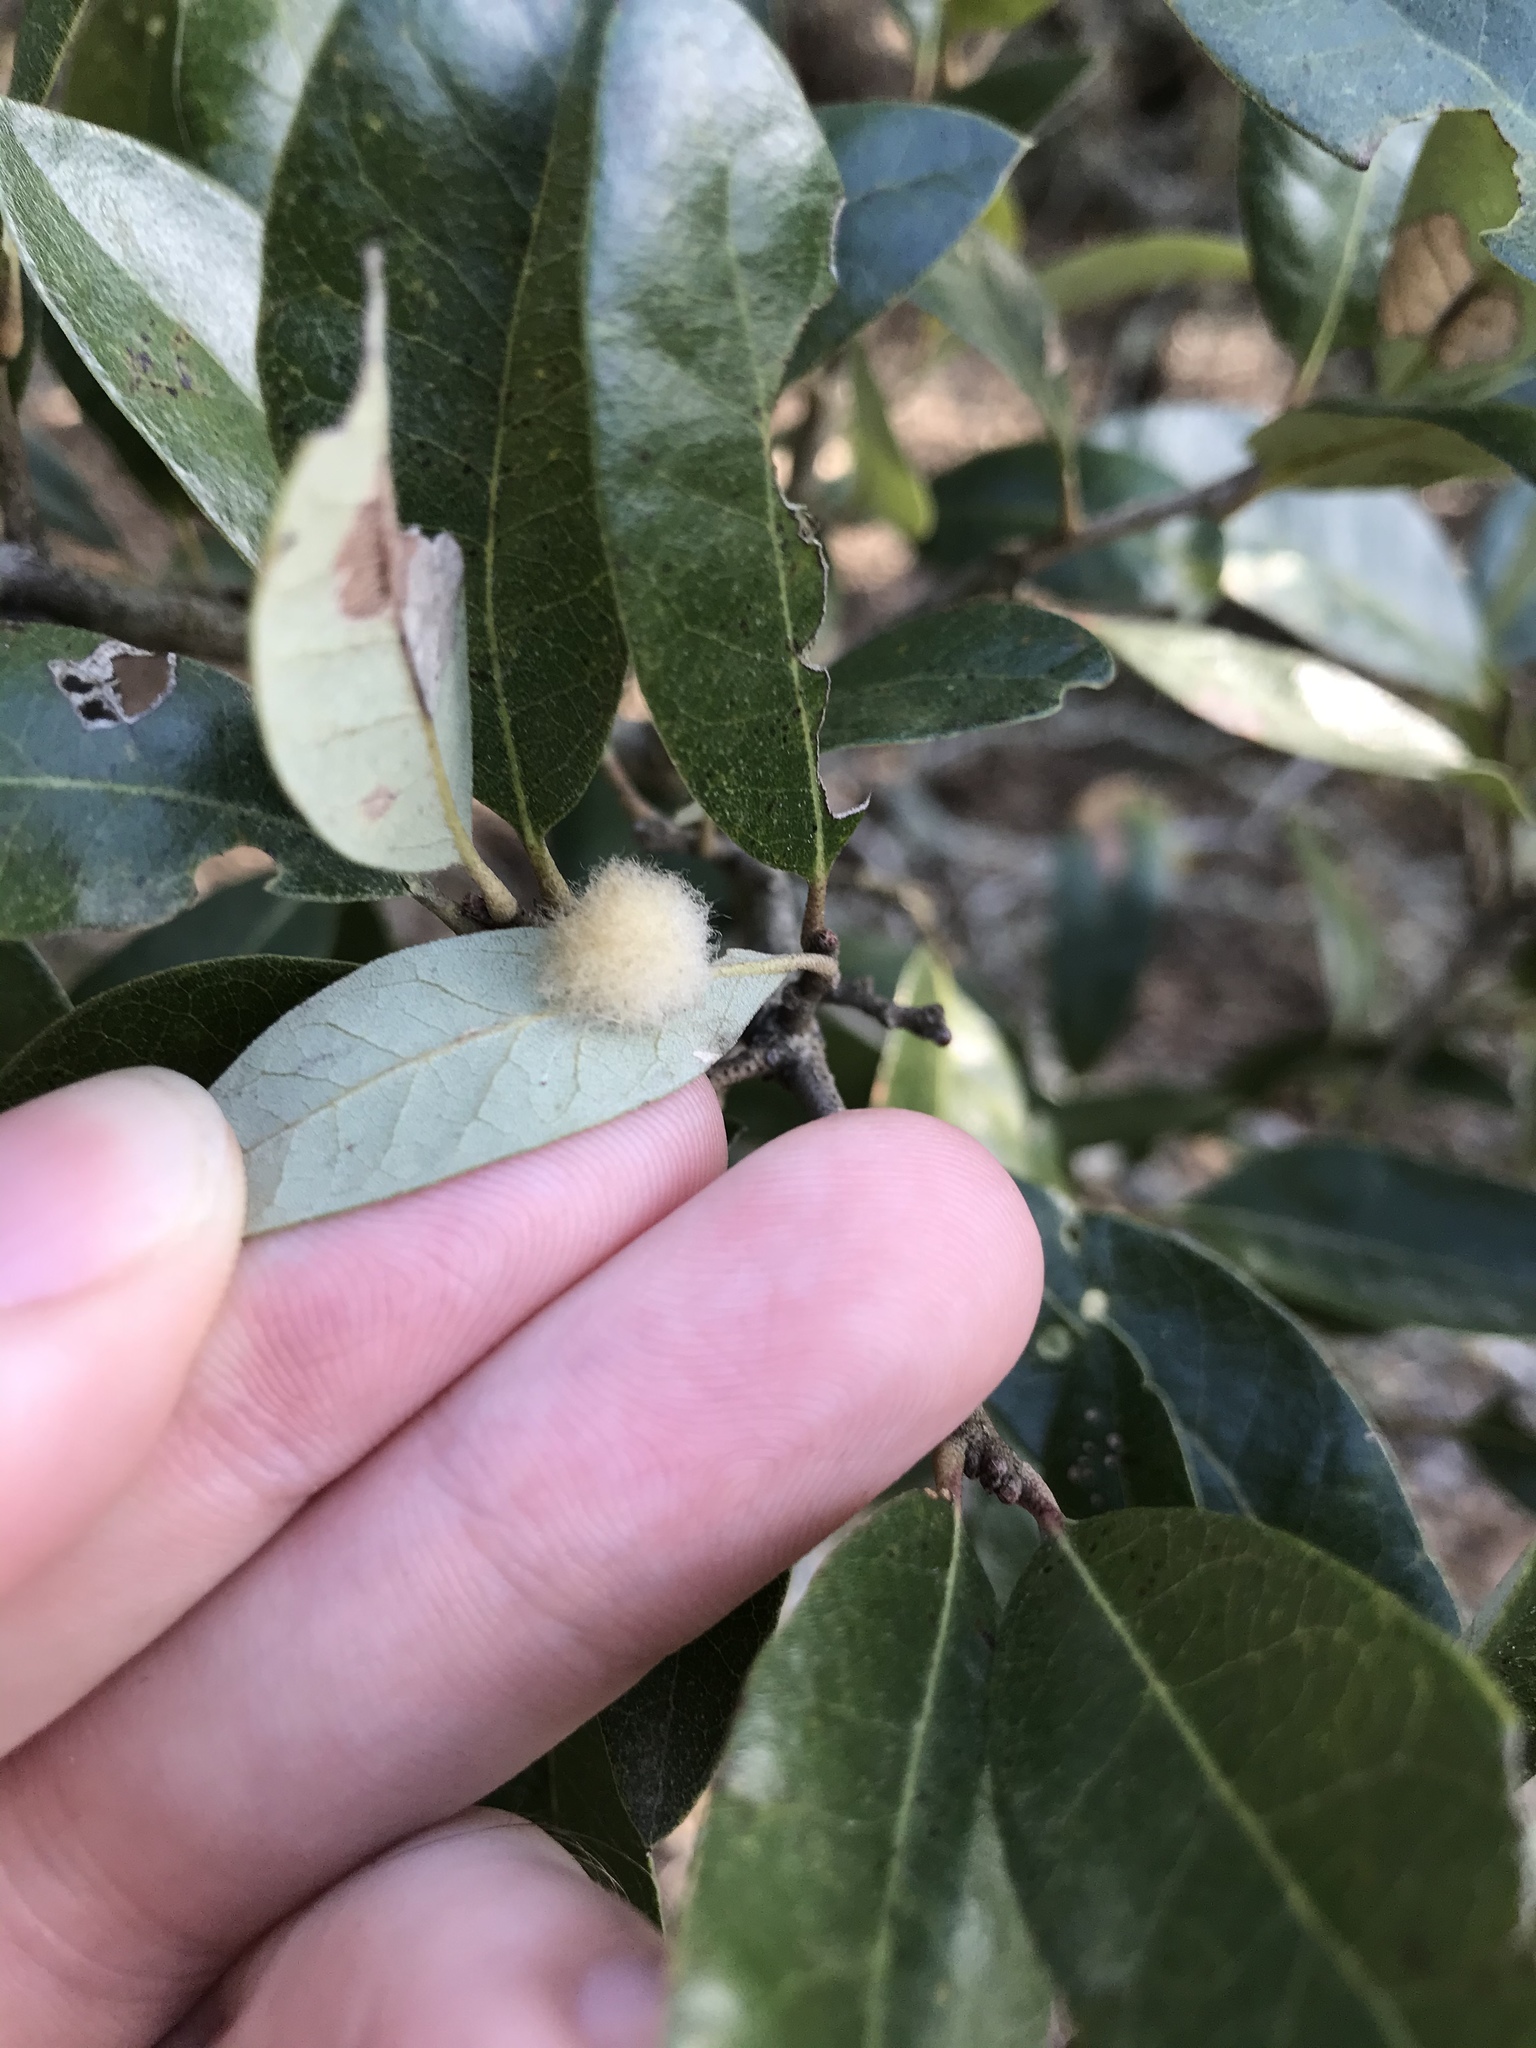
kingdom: Animalia
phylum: Arthropoda
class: Insecta
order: Hymenoptera
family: Cynipidae
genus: Andricus
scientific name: Andricus Druon quercuslanigerum
